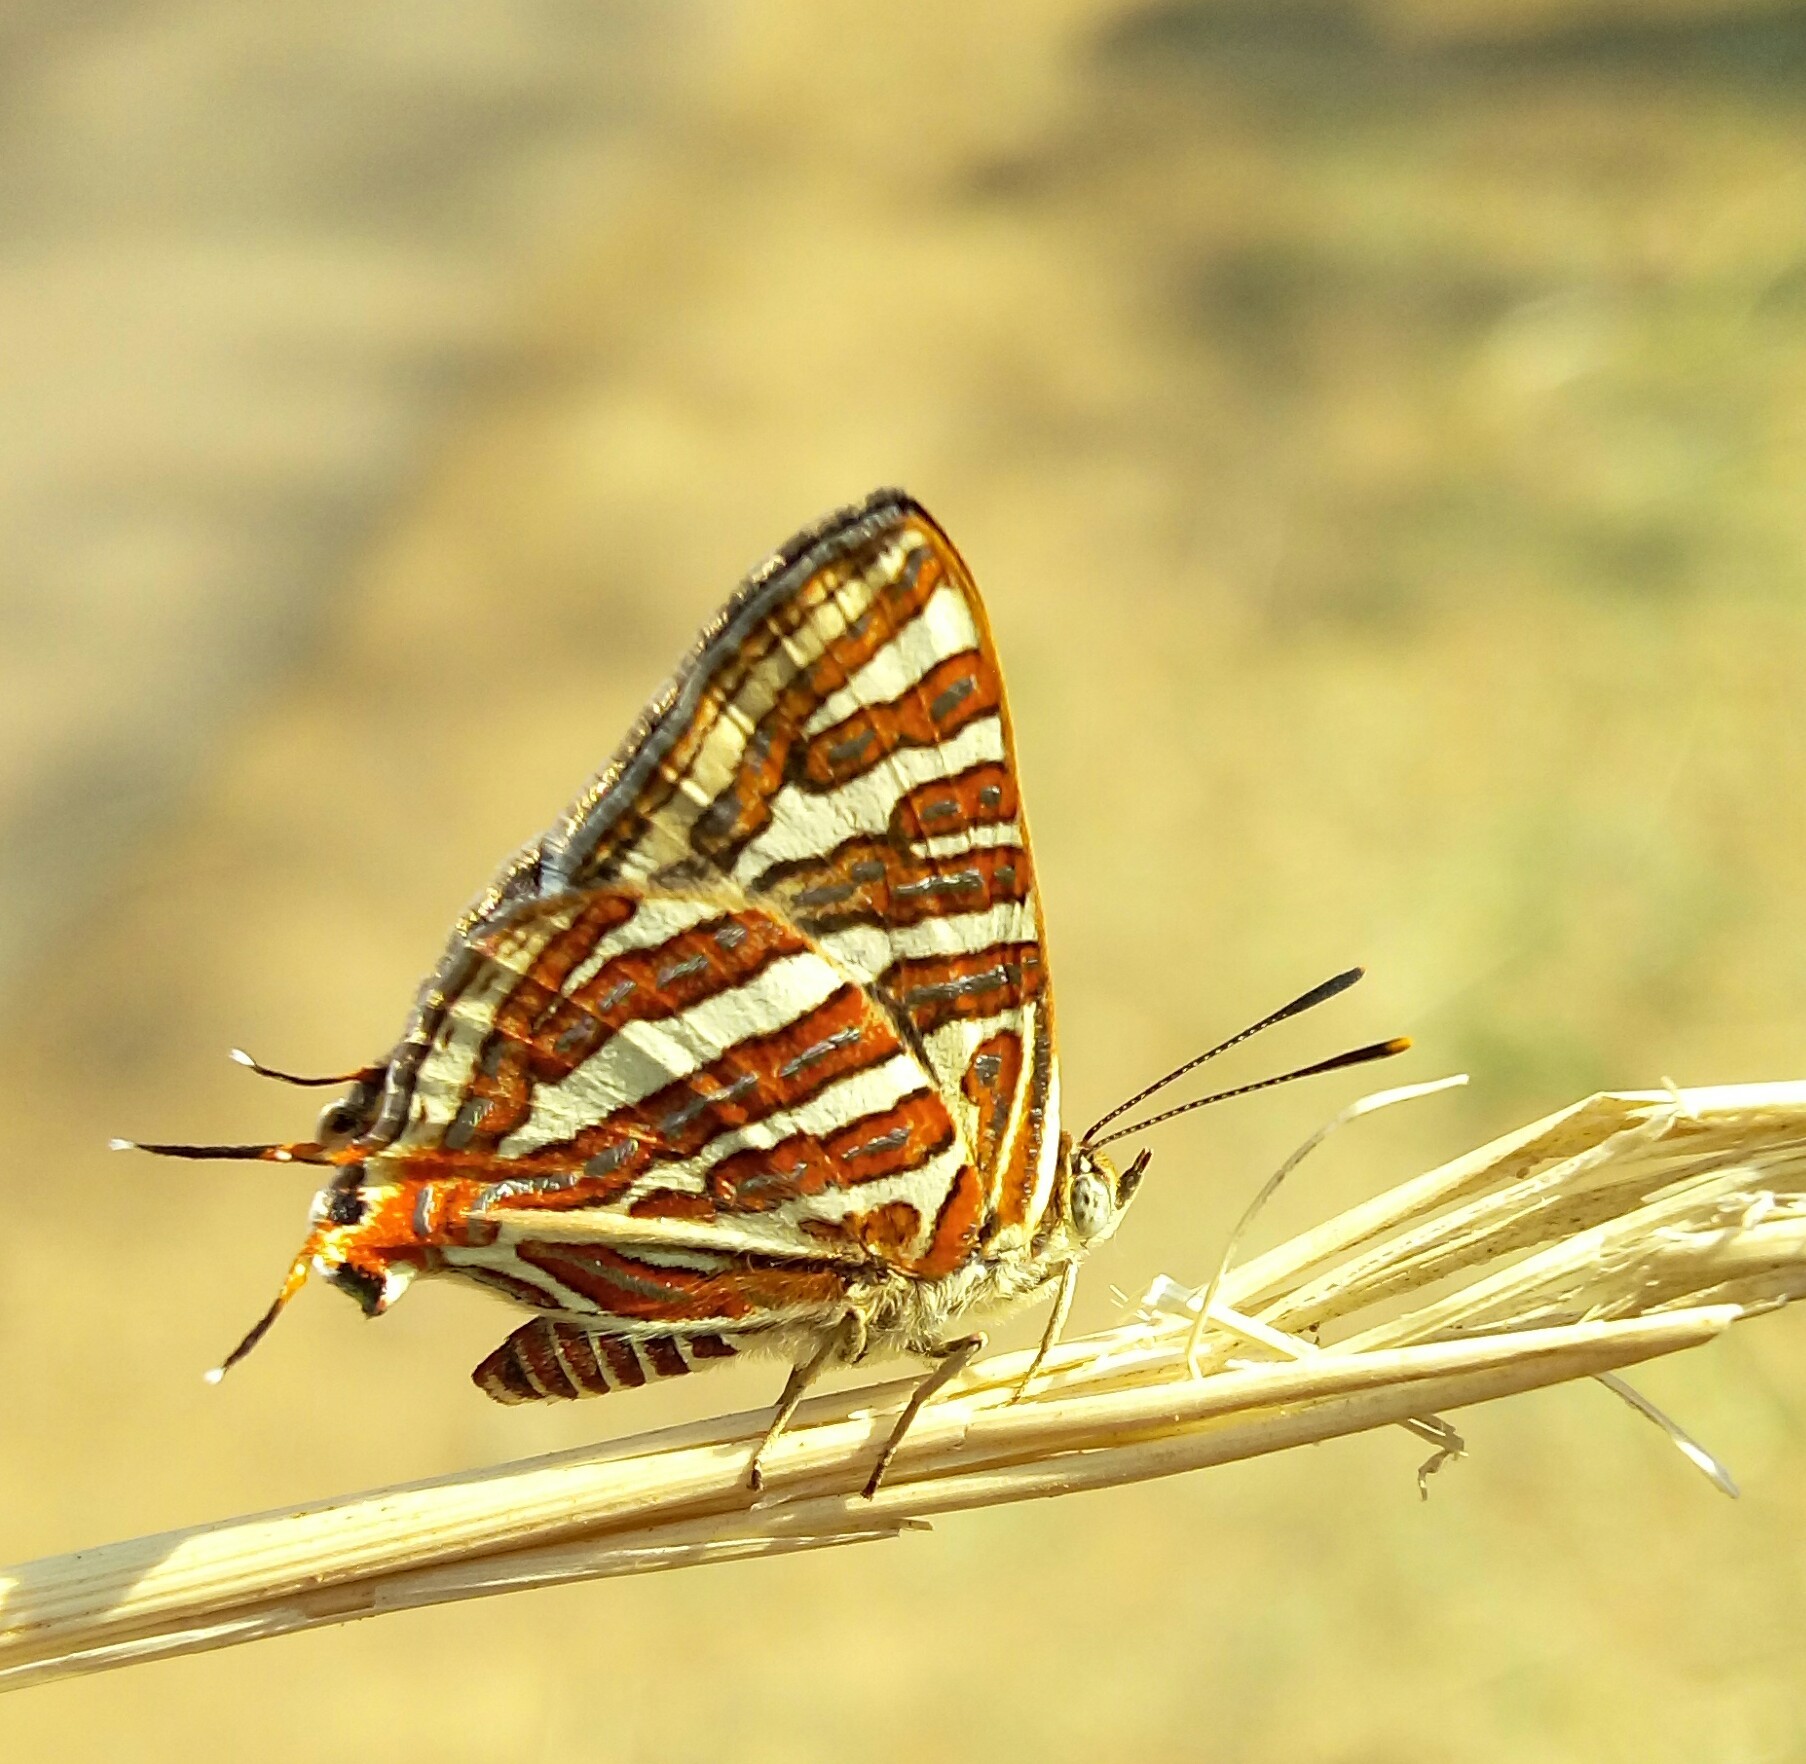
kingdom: Animalia
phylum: Arthropoda
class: Insecta
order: Lepidoptera
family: Lycaenidae
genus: Cigaritis
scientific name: Cigaritis vulcanus
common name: Common silverline
